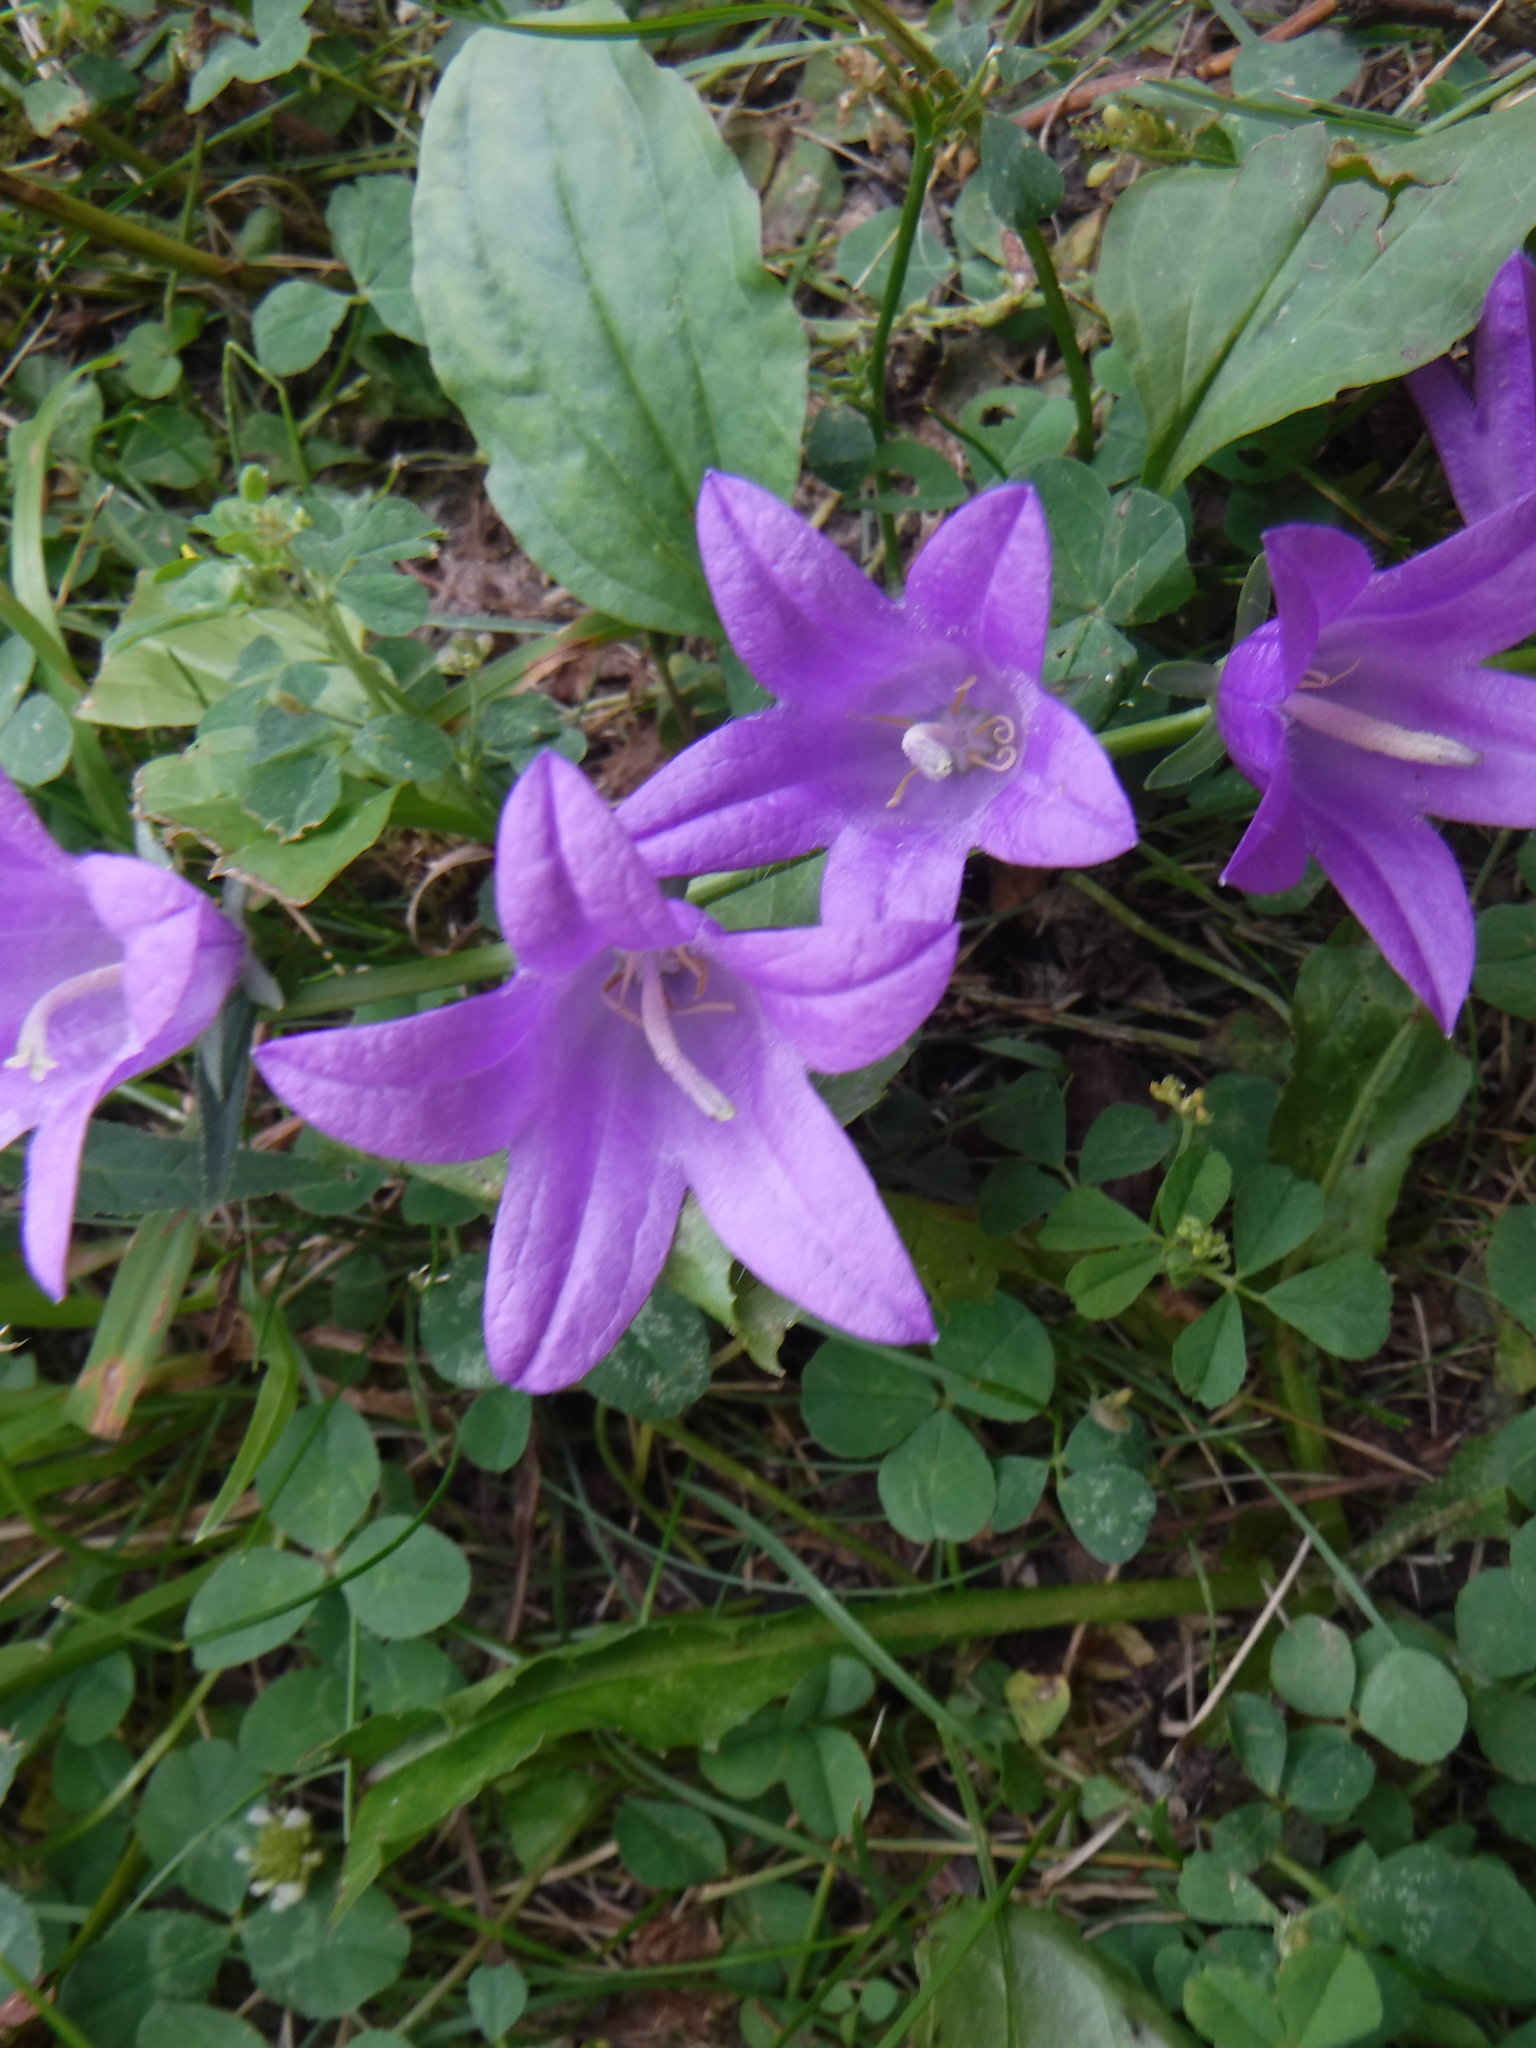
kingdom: Plantae
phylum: Tracheophyta
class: Magnoliopsida
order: Asterales
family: Campanulaceae
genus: Campanula
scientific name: Campanula rapunculoides
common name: Creeping bellflower
